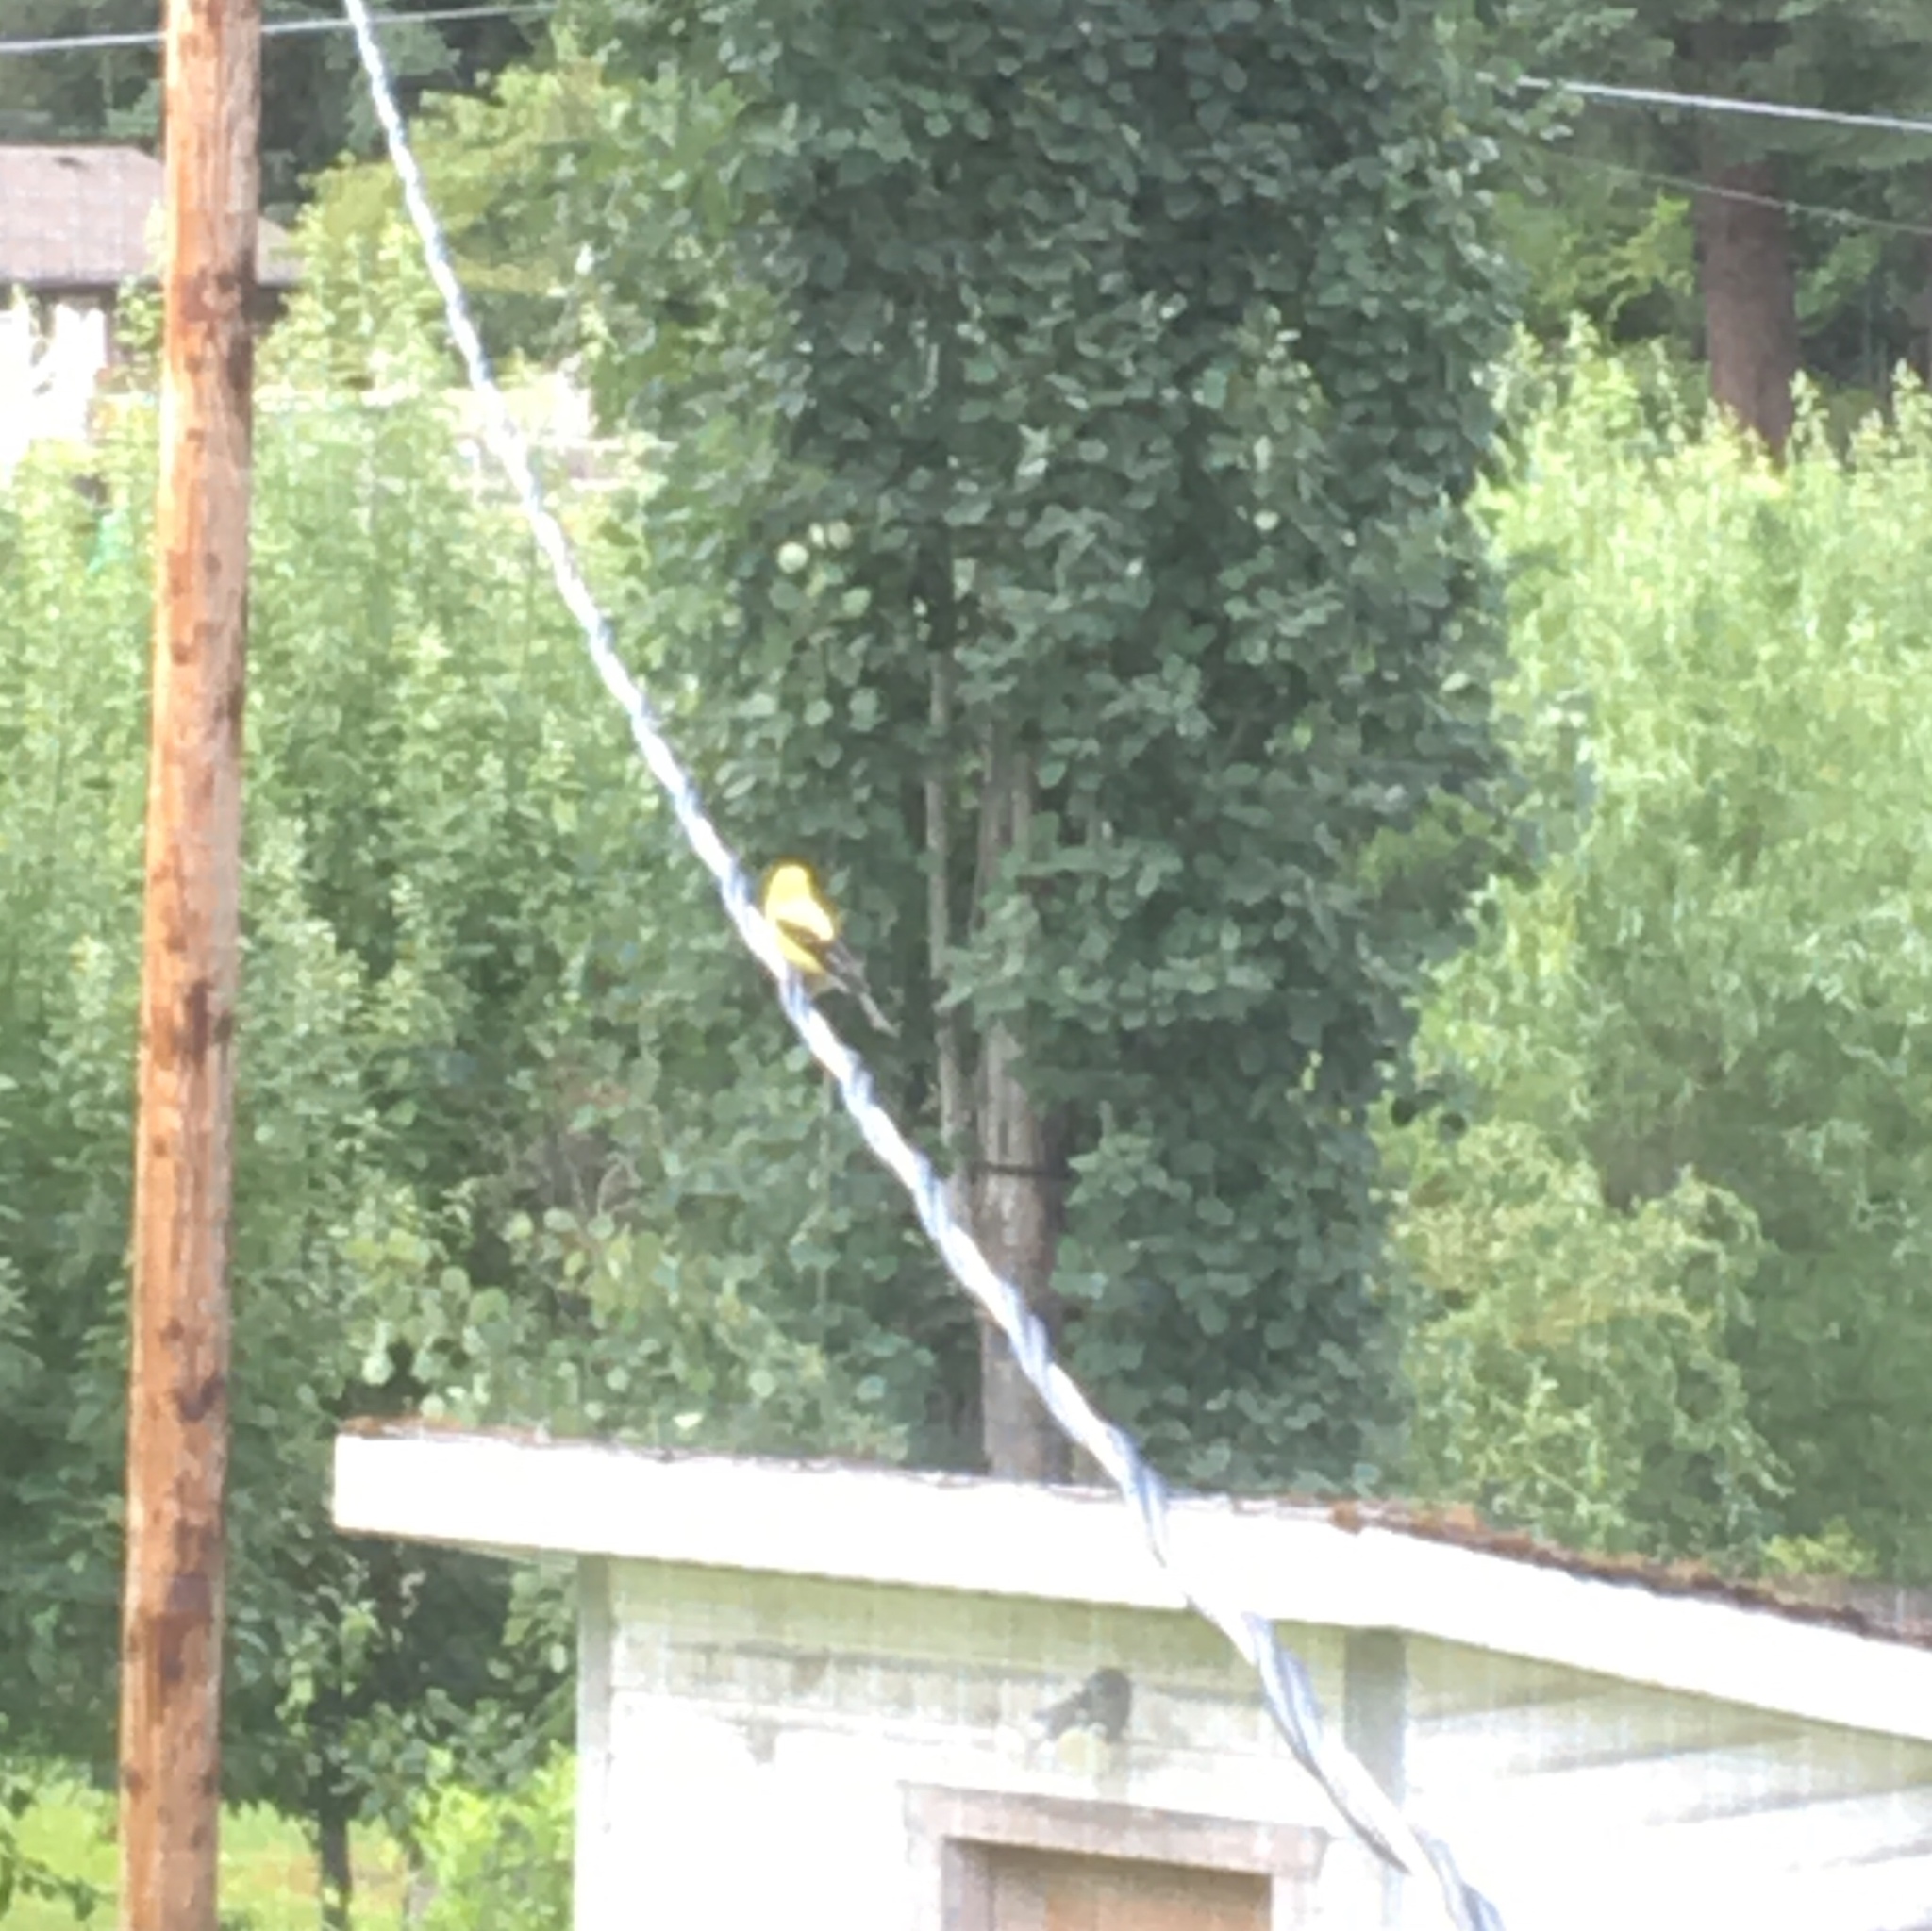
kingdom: Animalia
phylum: Chordata
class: Aves
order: Passeriformes
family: Fringillidae
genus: Spinus
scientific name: Spinus tristis
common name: American goldfinch
